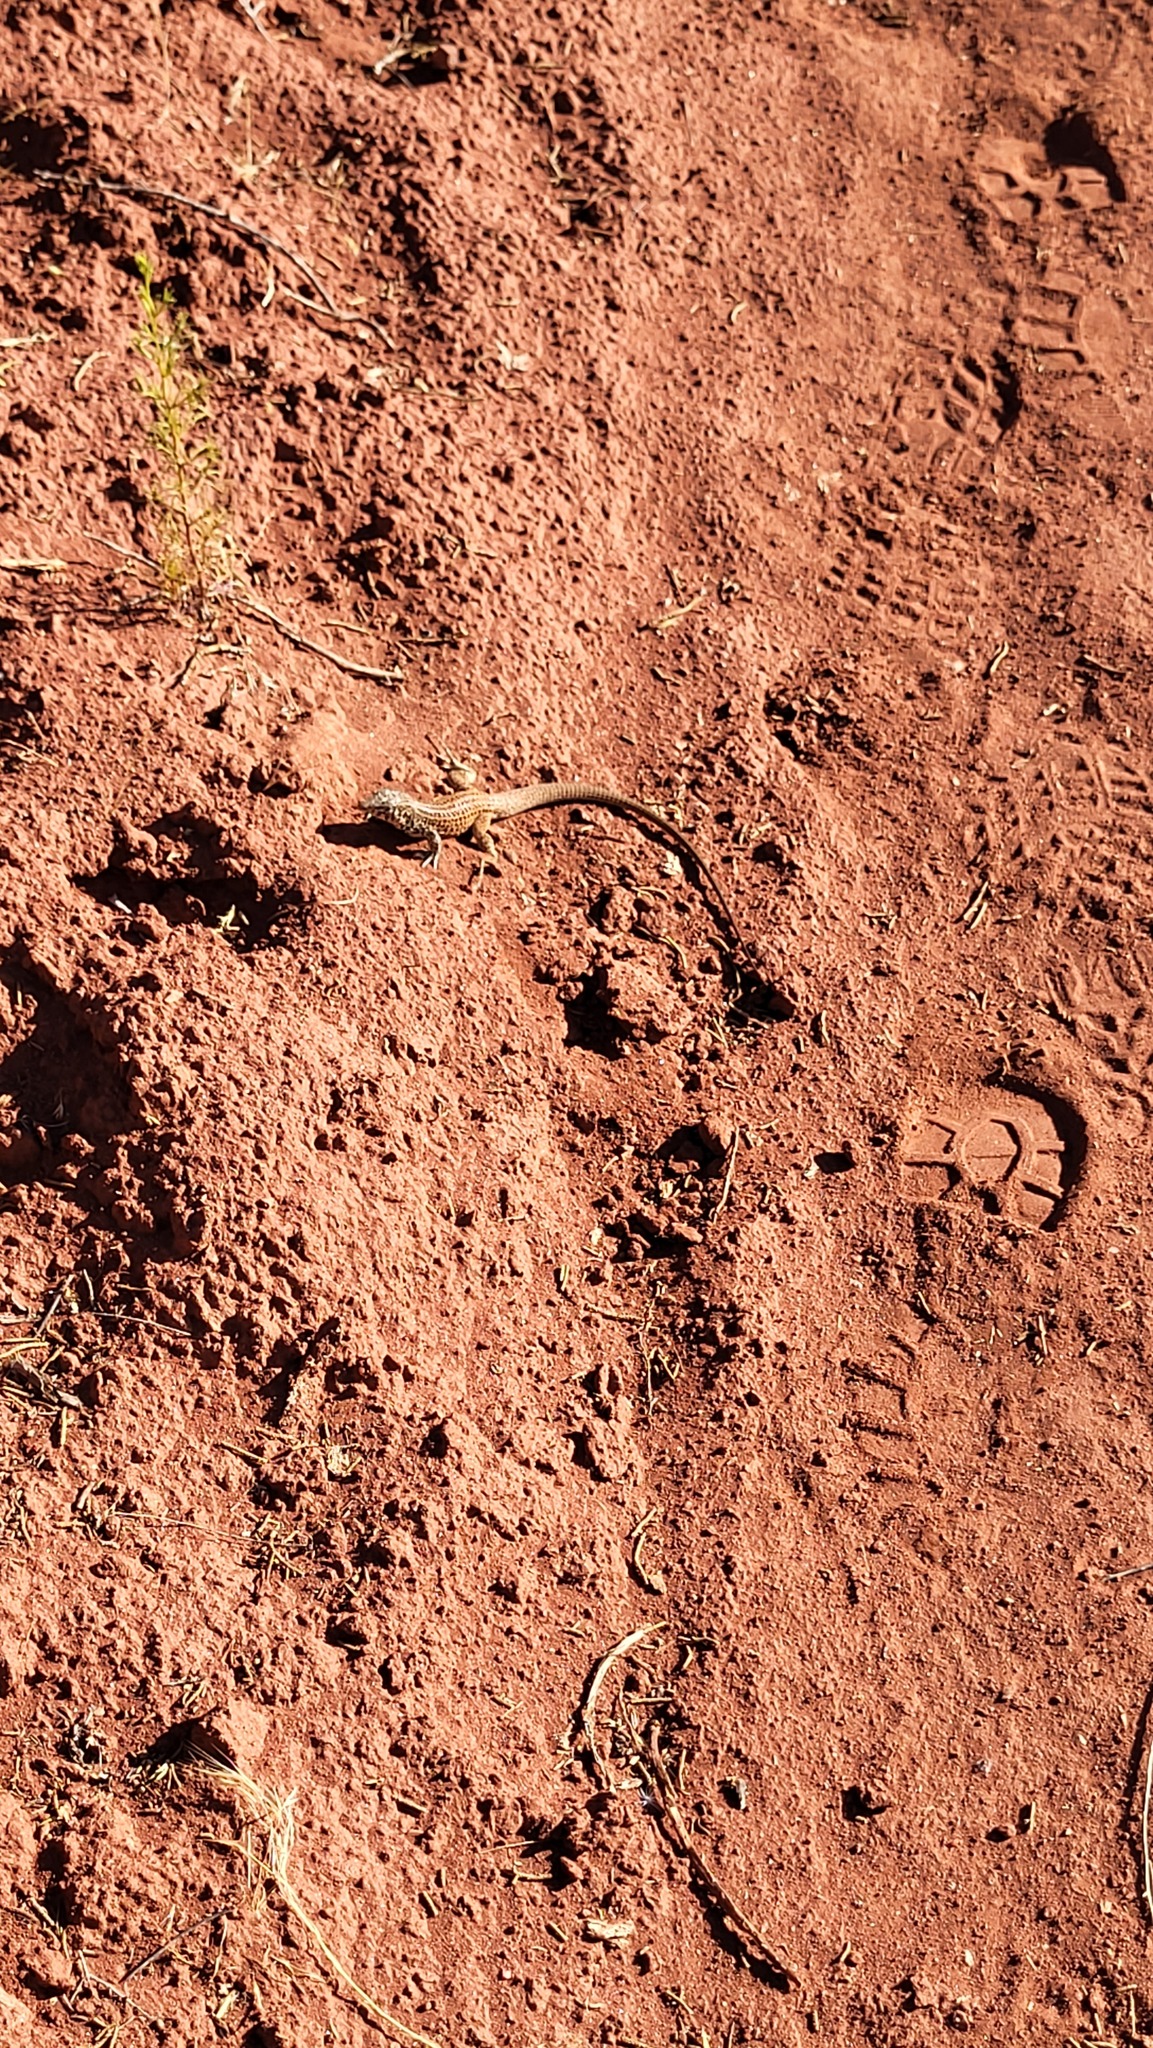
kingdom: Animalia
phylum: Chordata
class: Squamata
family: Teiidae
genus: Aspidoscelis
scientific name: Aspidoscelis tigris
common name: Tiger whiptail
